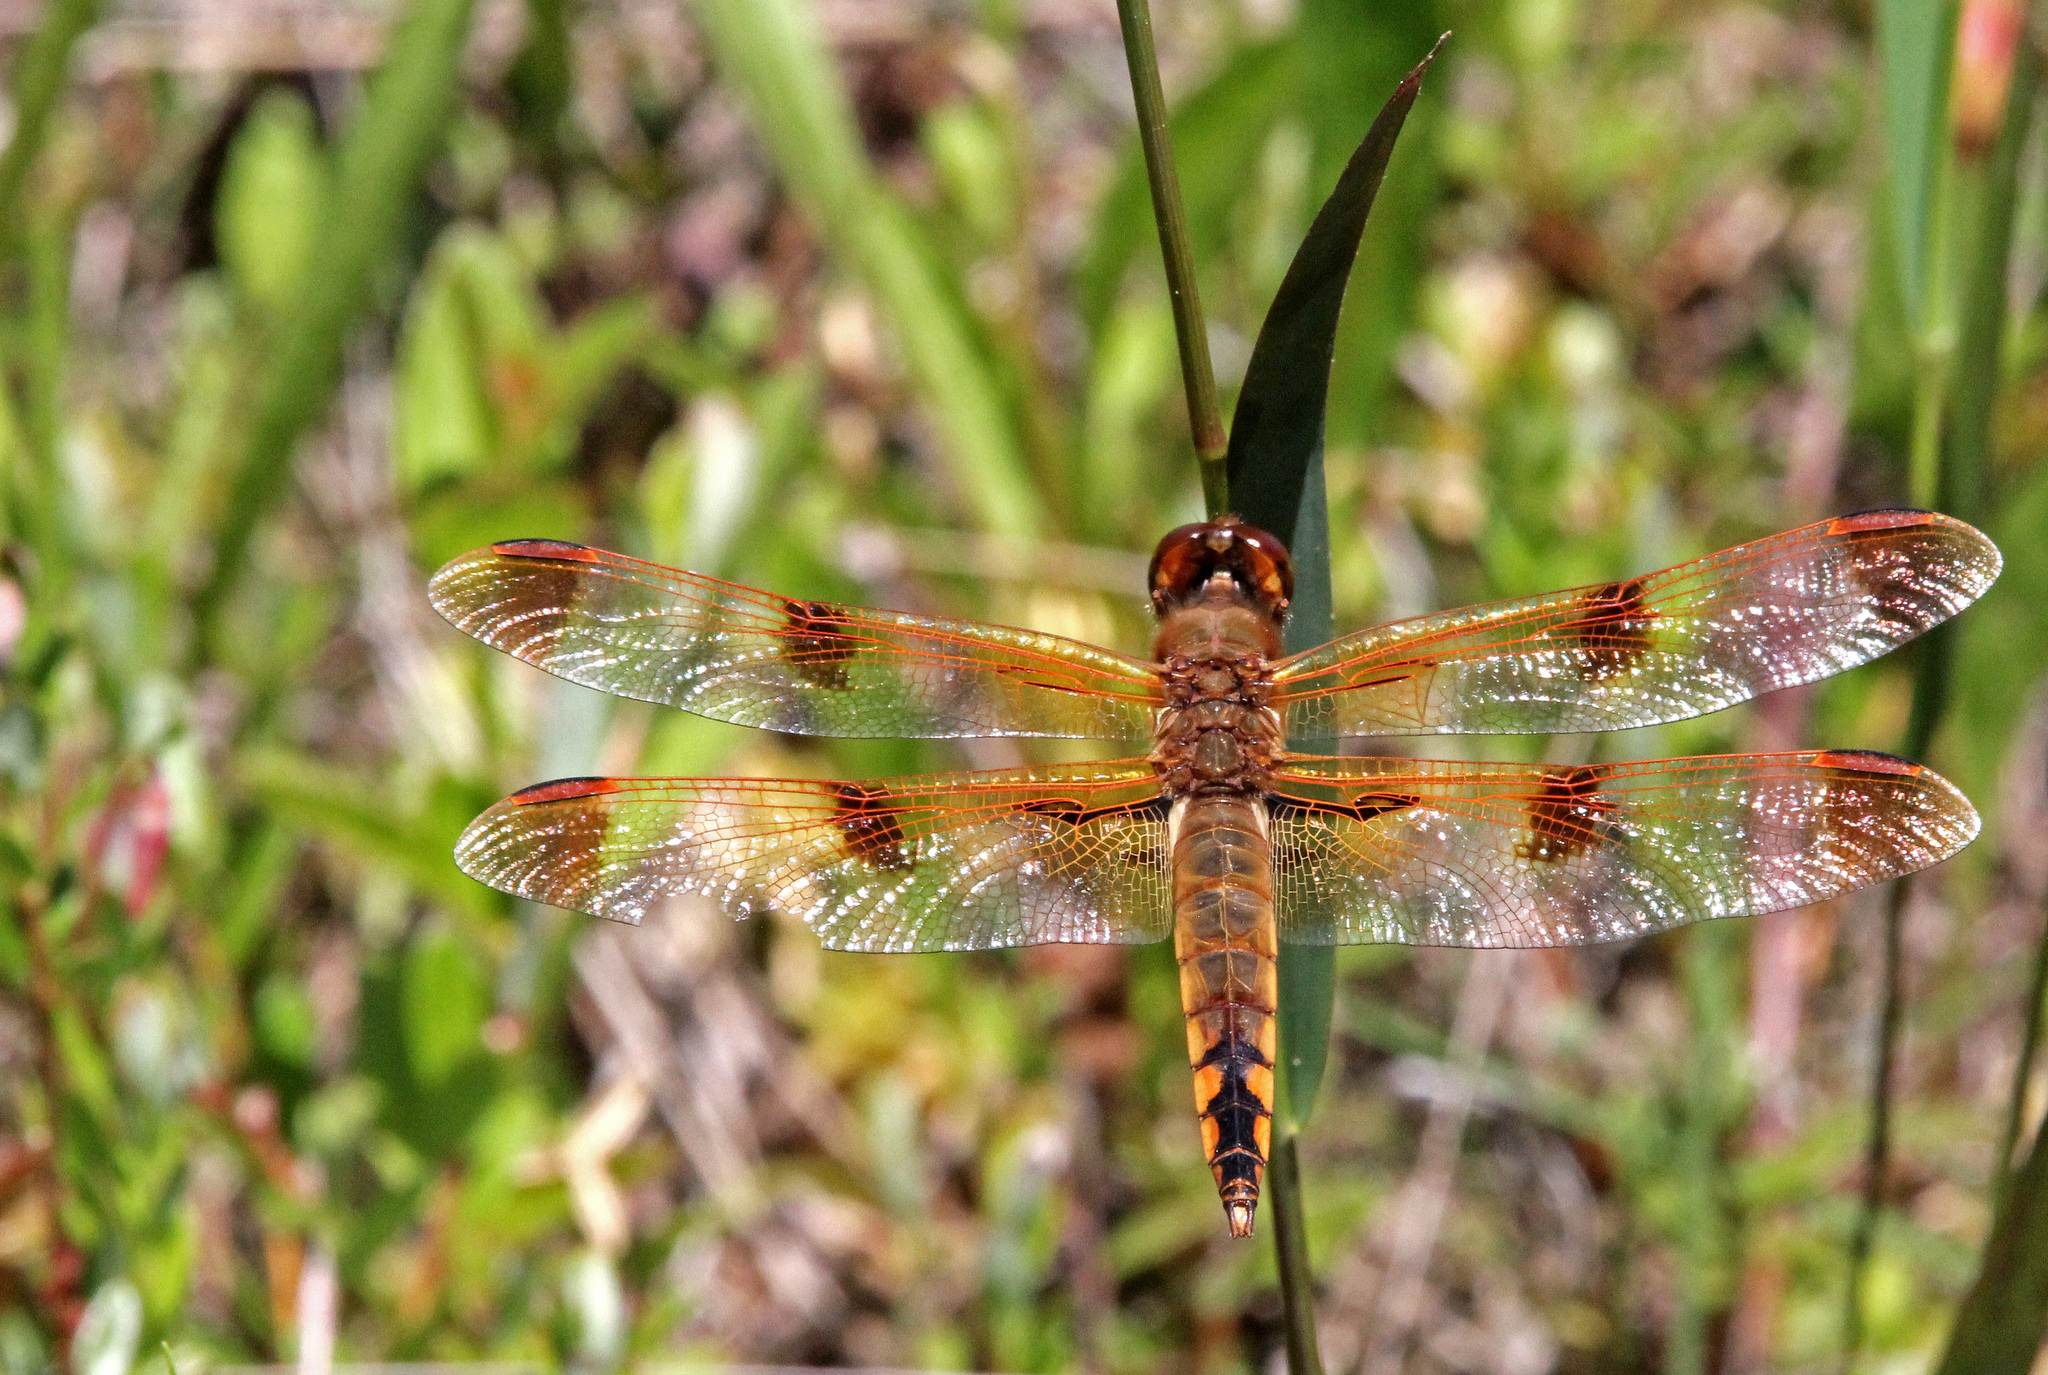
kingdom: Animalia
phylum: Arthropoda
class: Insecta
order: Odonata
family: Libellulidae
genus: Libellula
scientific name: Libellula semifasciata
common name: Painted skimmer
